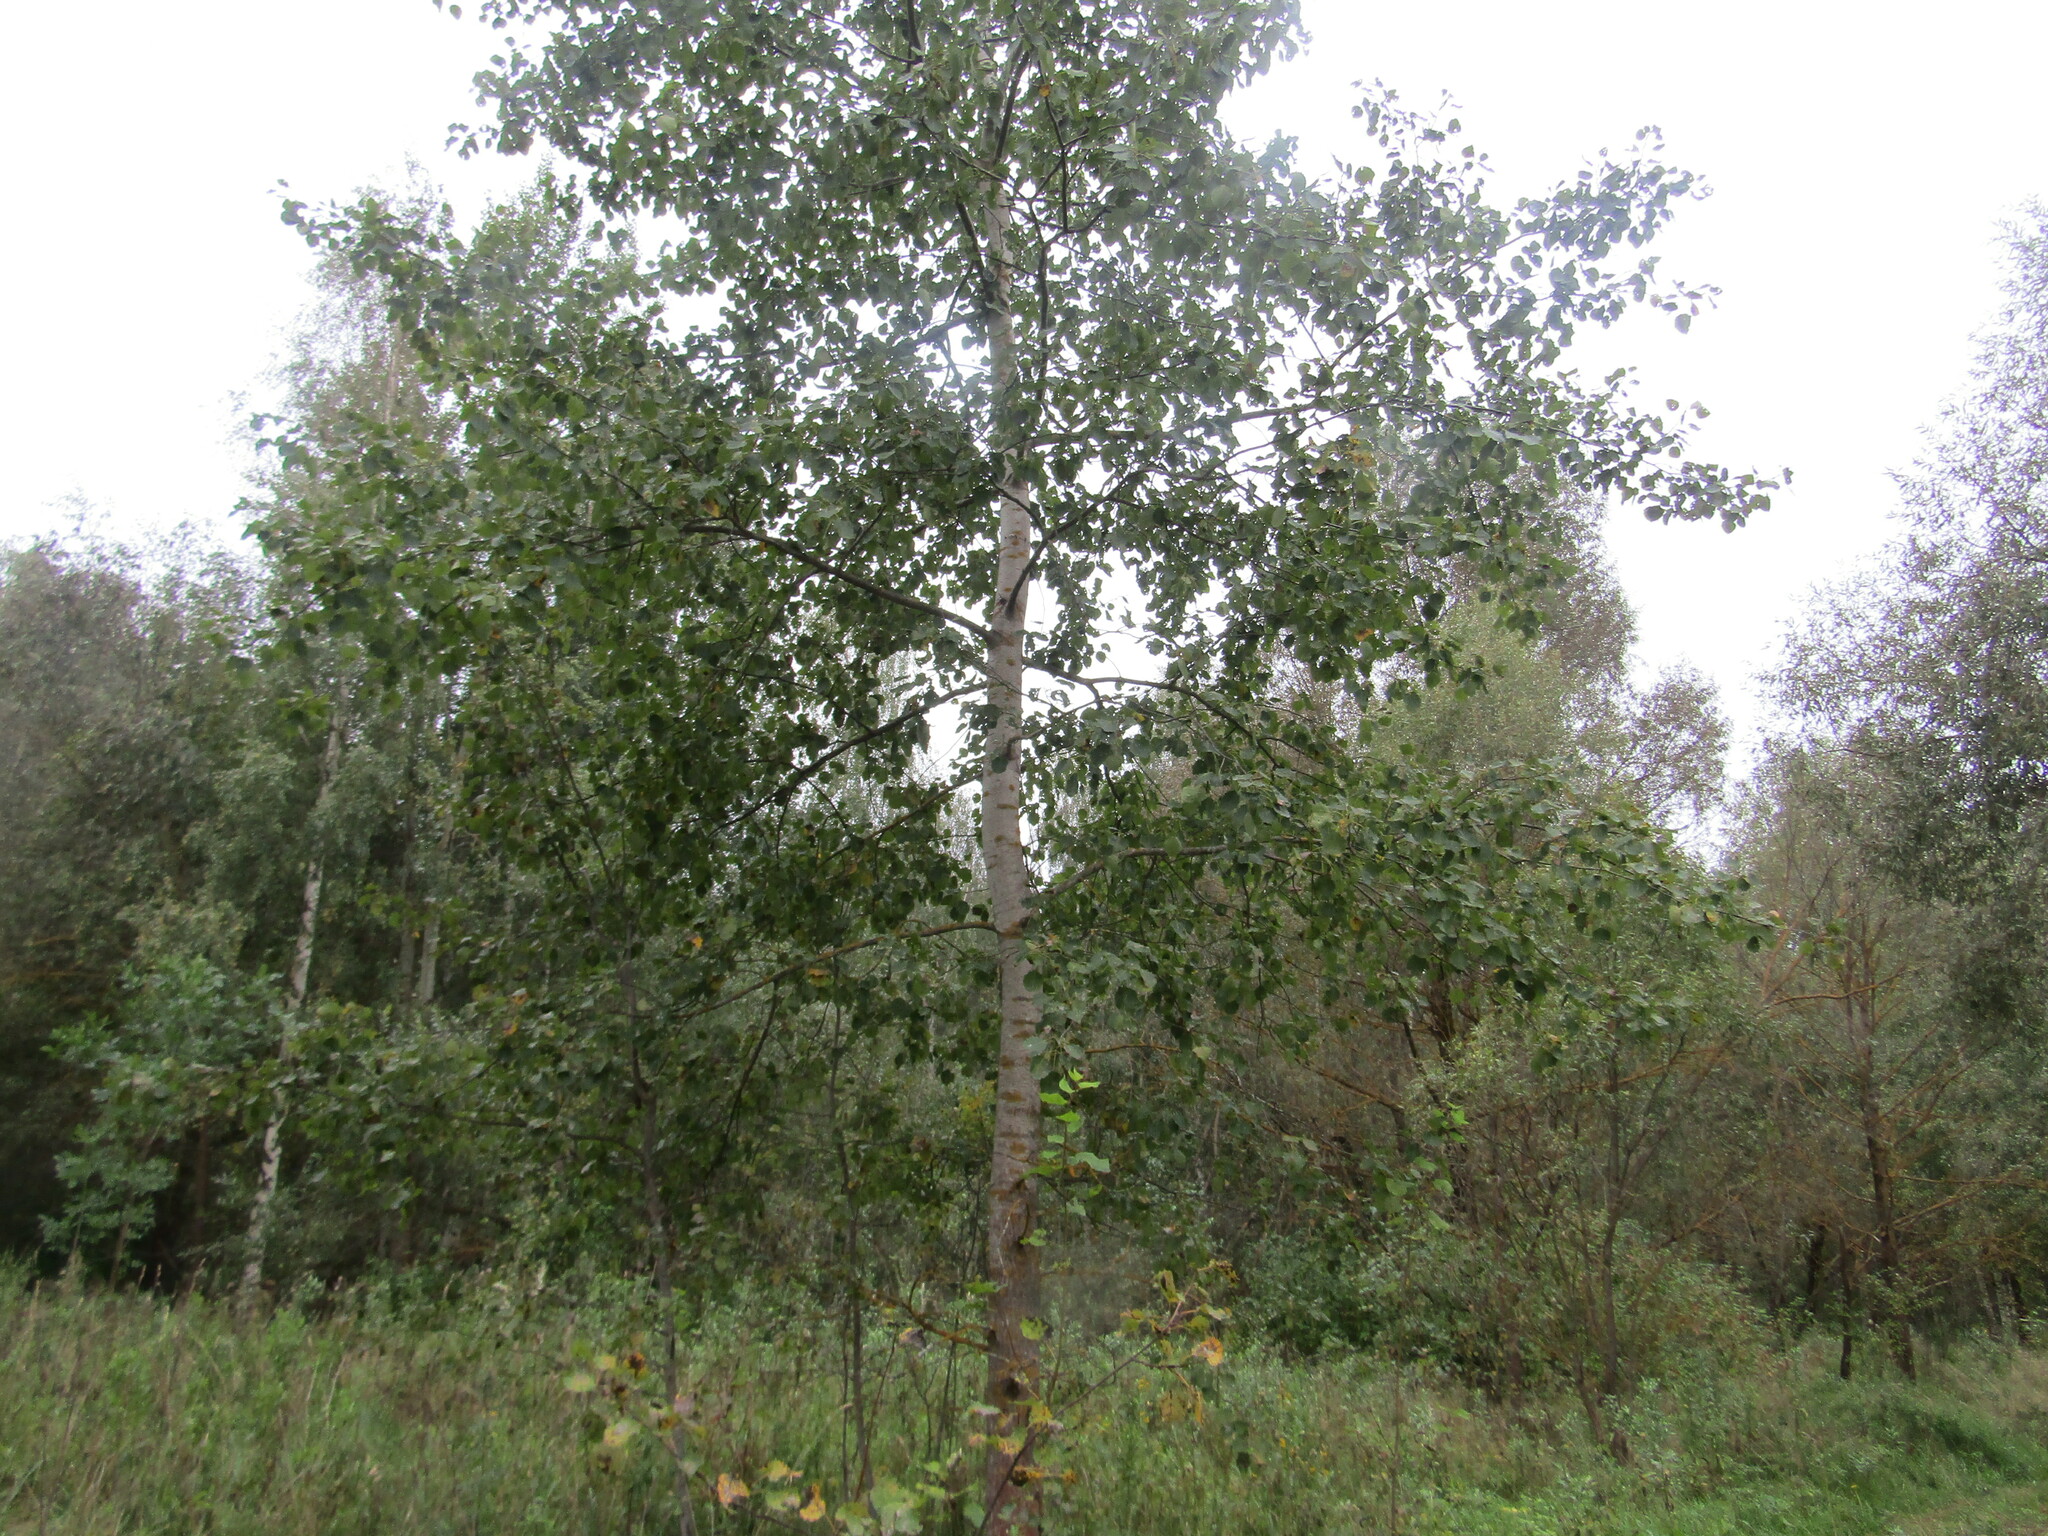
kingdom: Plantae
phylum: Tracheophyta
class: Magnoliopsida
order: Malpighiales
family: Salicaceae
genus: Populus
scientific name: Populus tremula
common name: European aspen
